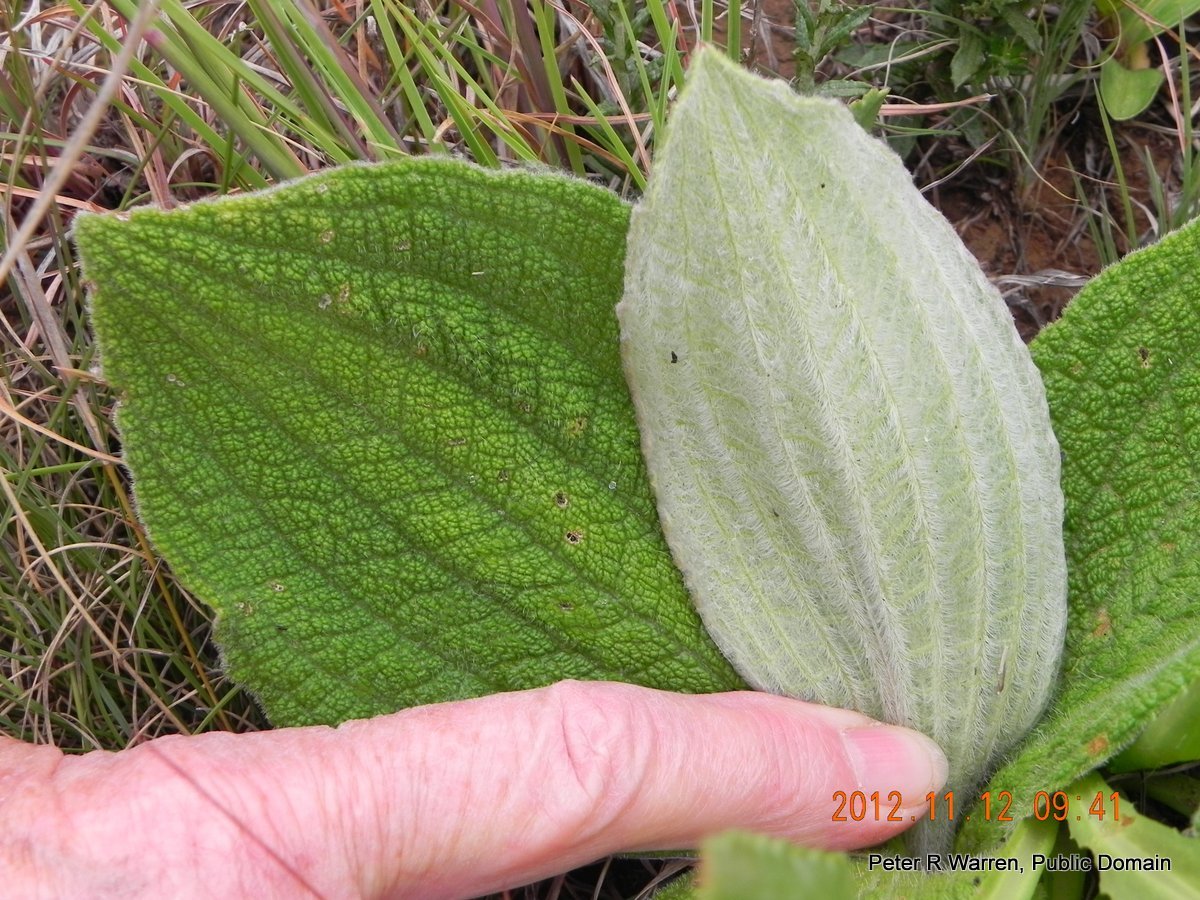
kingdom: Plantae
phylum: Tracheophyta
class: Magnoliopsida
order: Asterales
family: Asteraceae
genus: Helichrysum
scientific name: Helichrysum nudifolium
